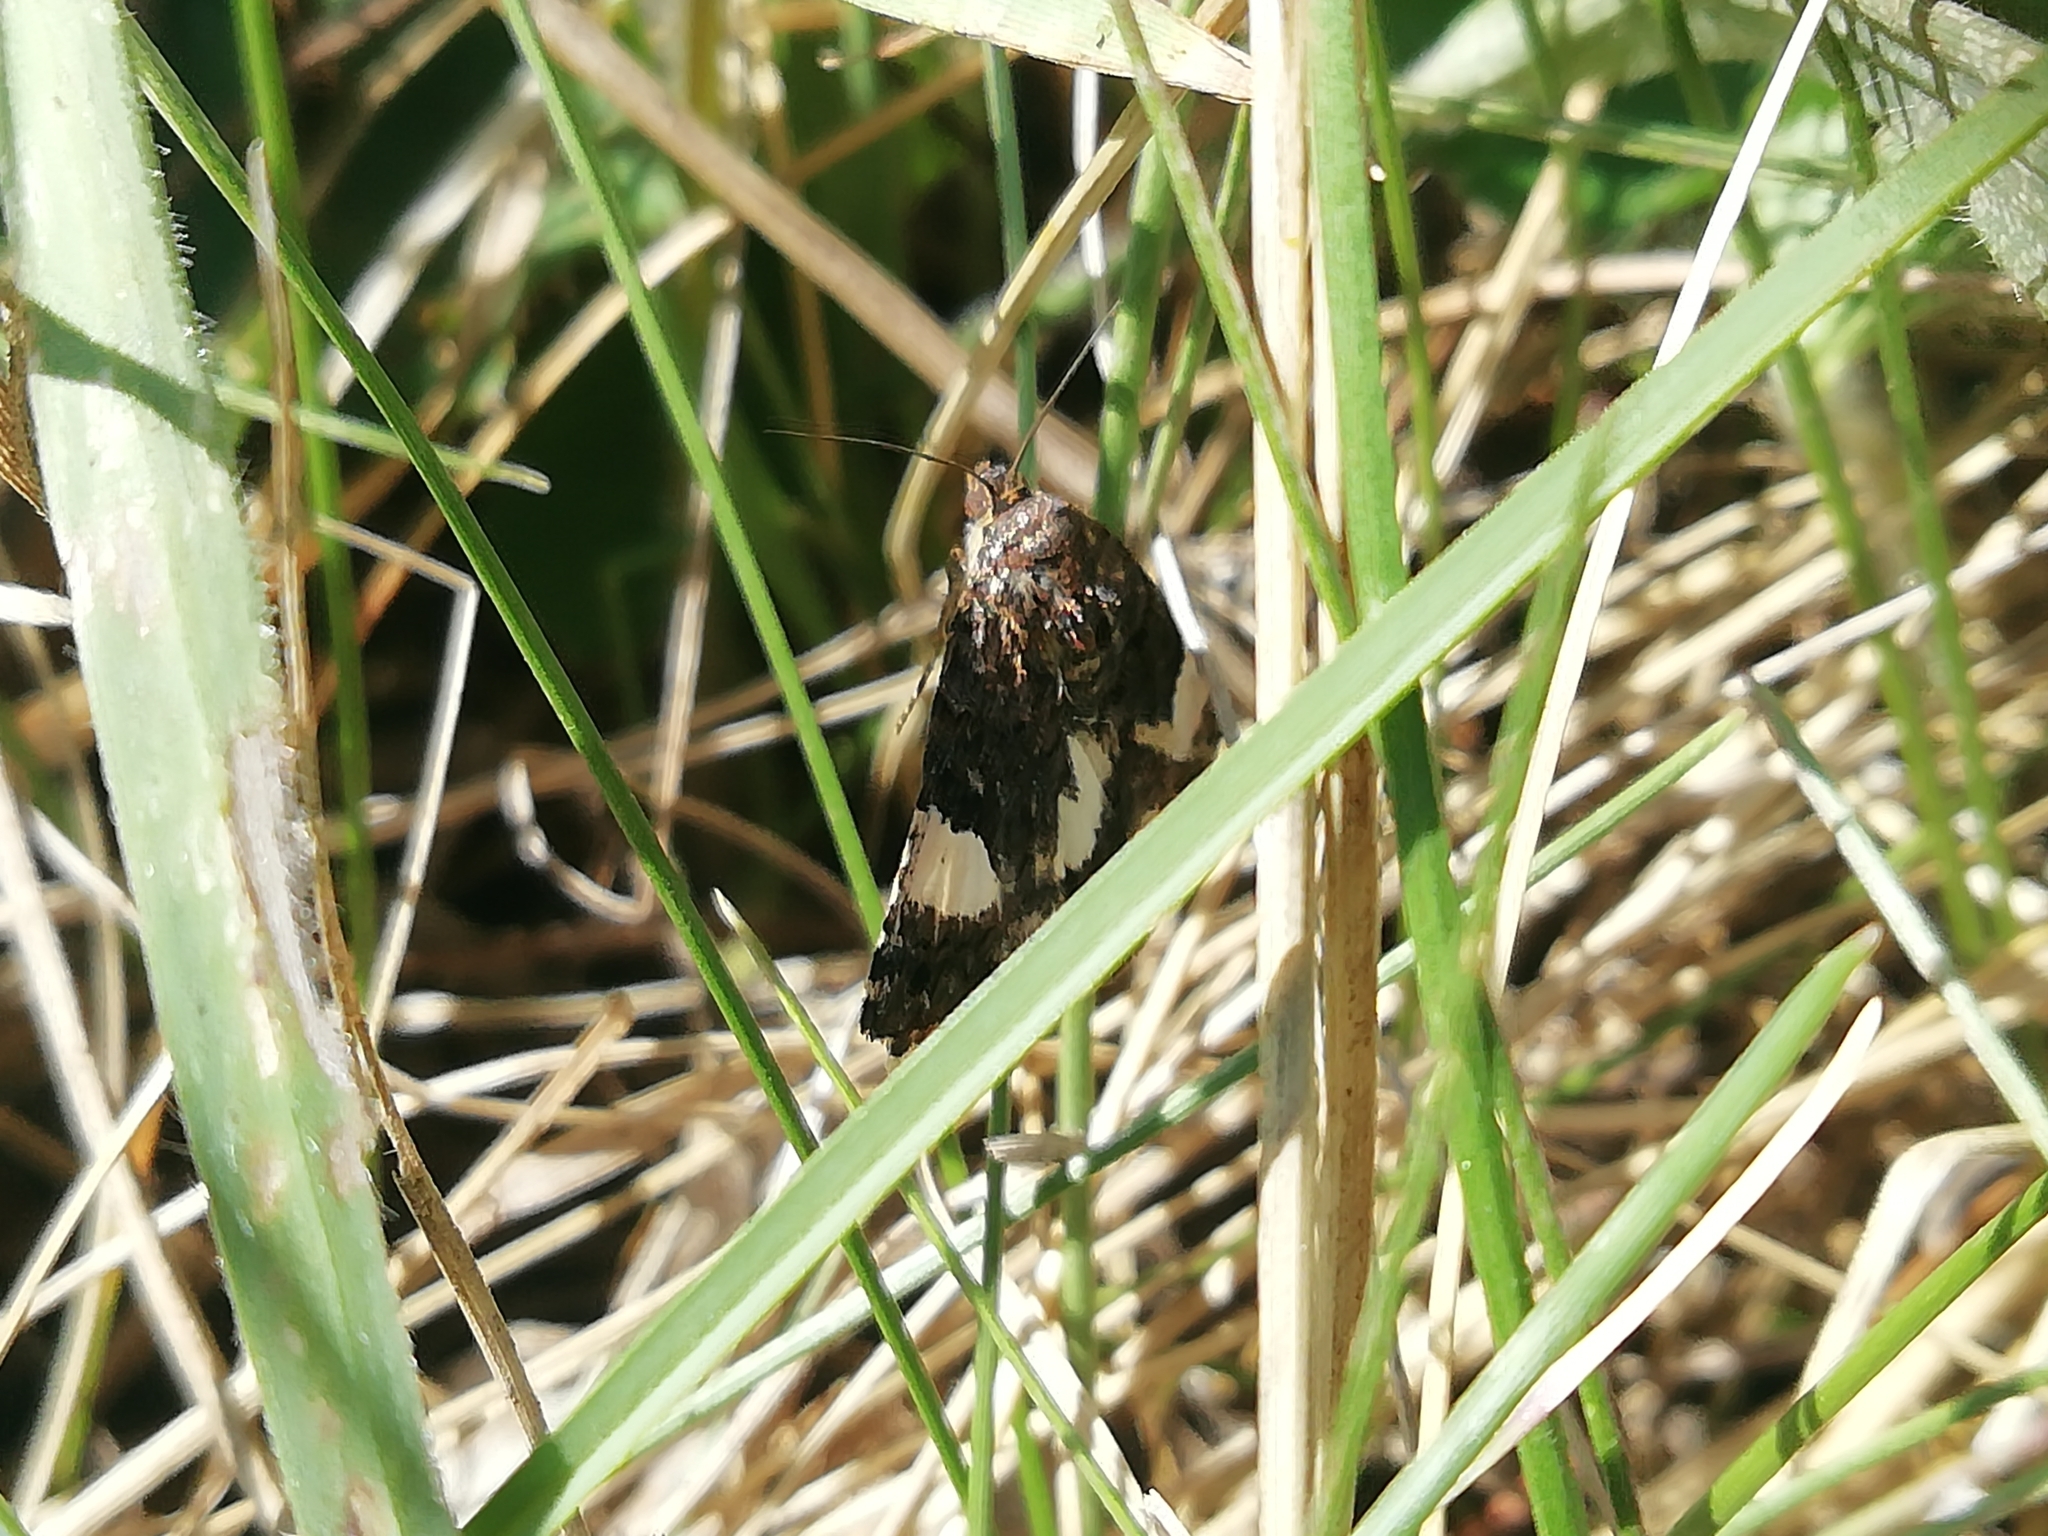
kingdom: Animalia
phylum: Arthropoda
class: Insecta
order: Lepidoptera
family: Erebidae
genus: Tyta
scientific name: Tyta luctuosa
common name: Four-spotted
